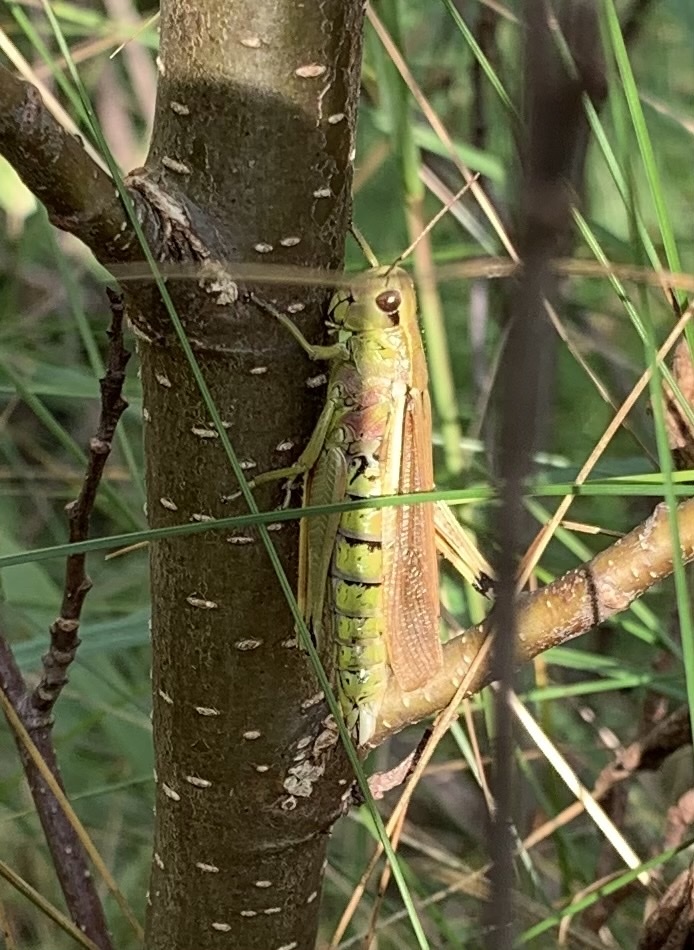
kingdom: Animalia
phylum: Arthropoda
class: Insecta
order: Orthoptera
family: Acrididae
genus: Stethophyma
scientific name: Stethophyma grossum
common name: Large marsh grasshopper
